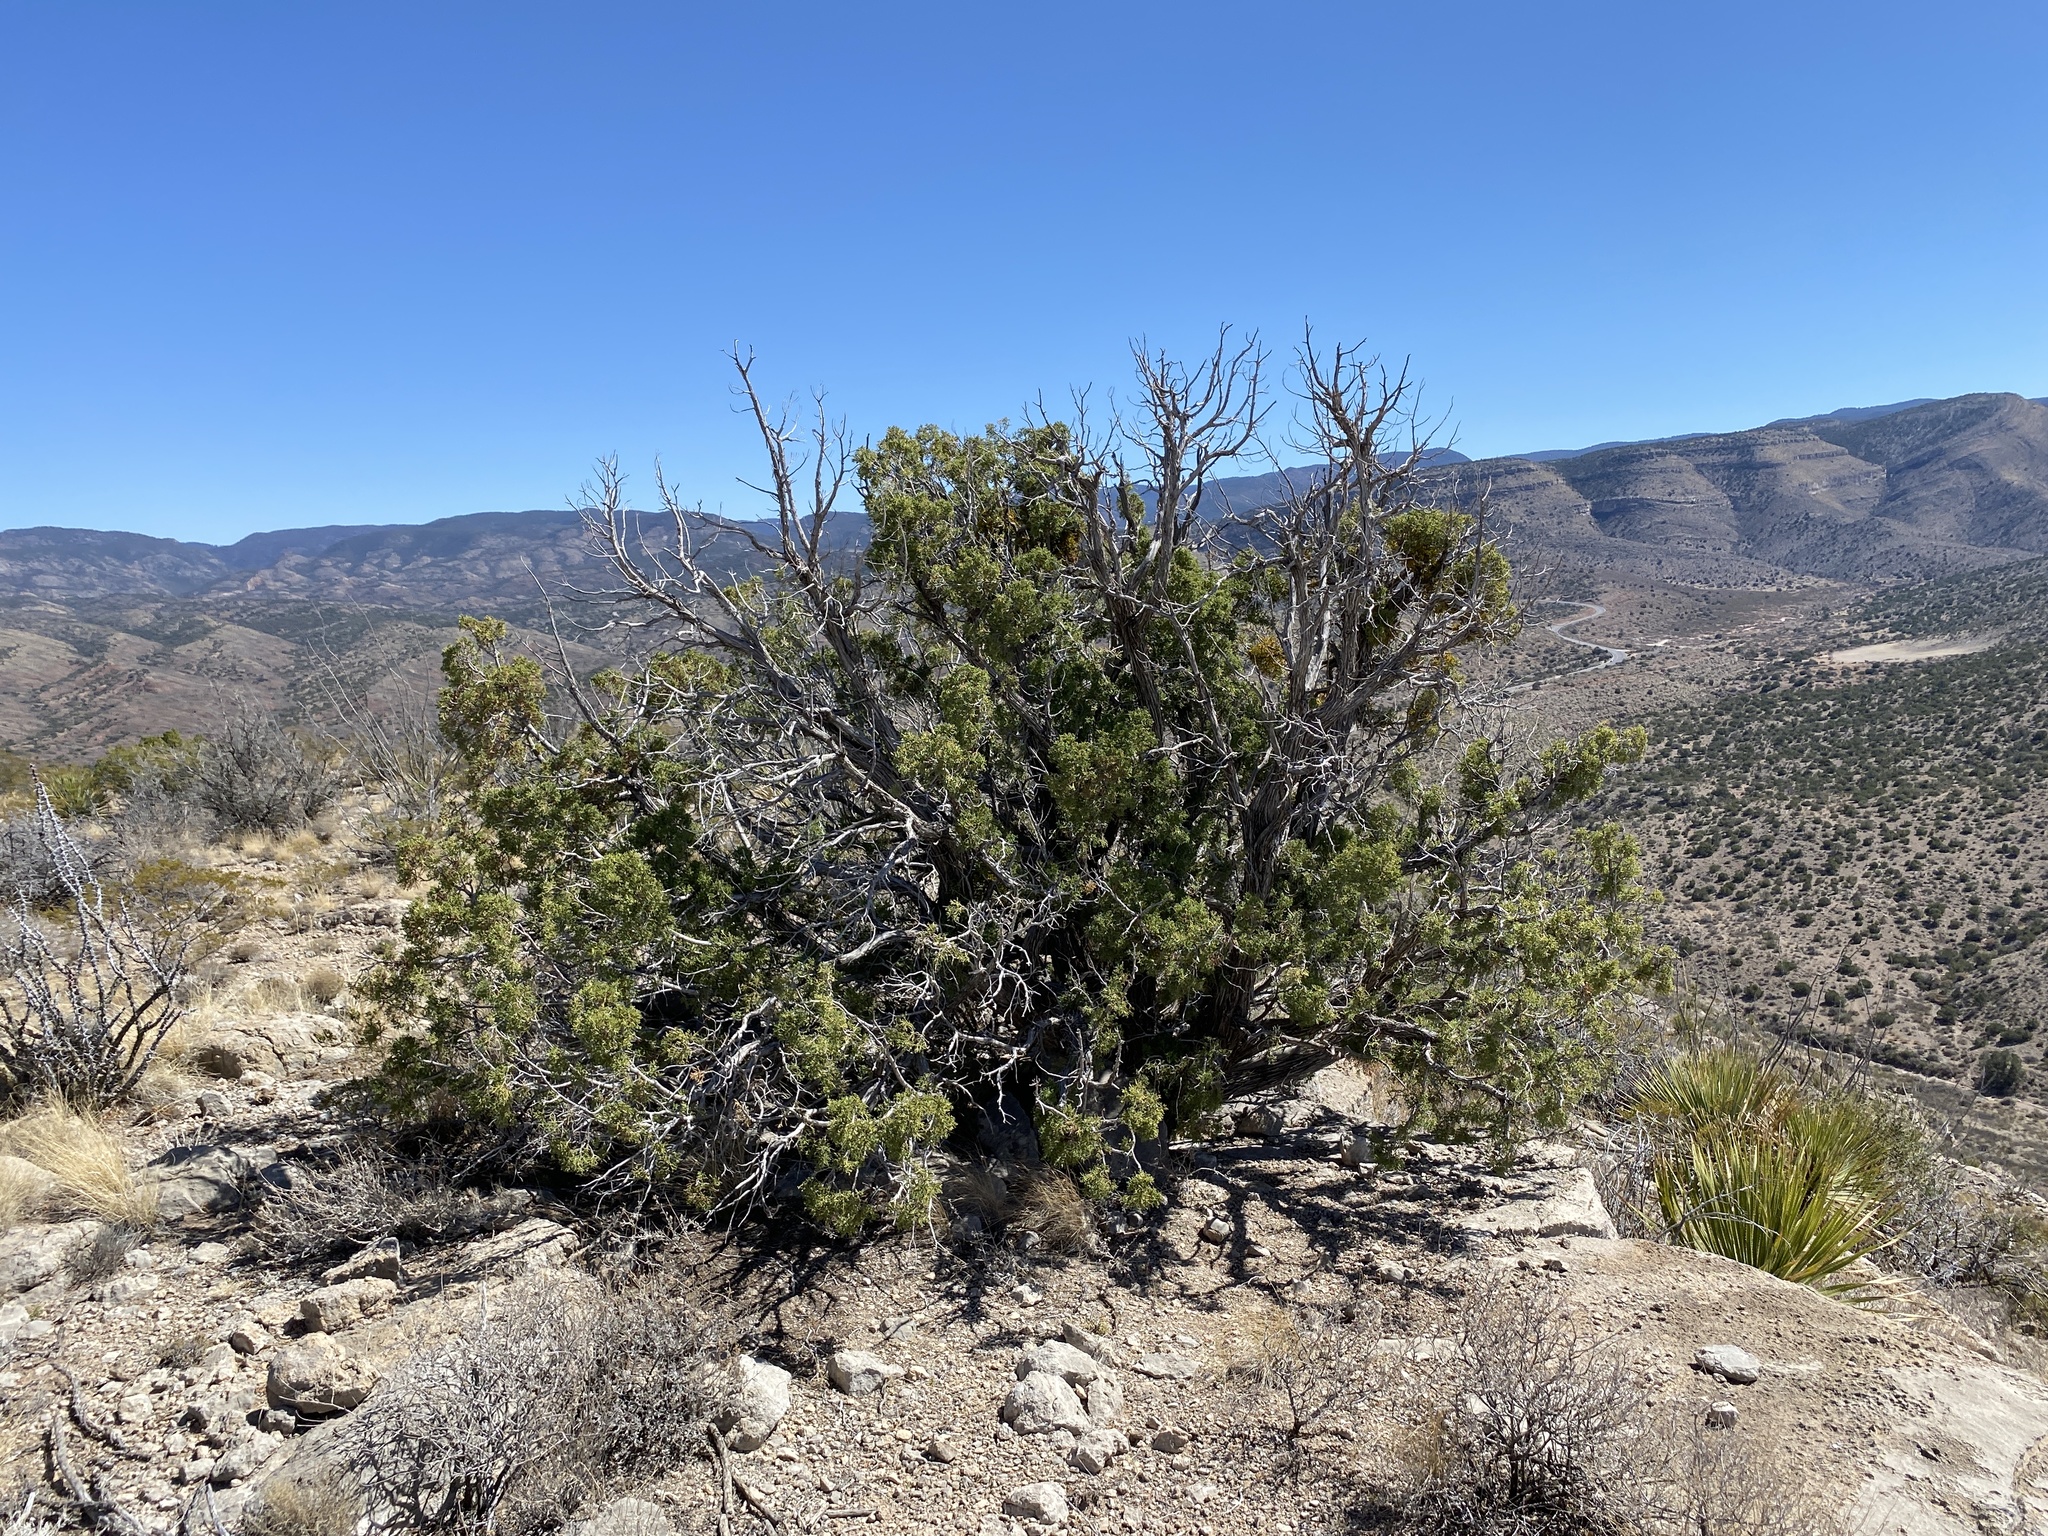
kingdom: Plantae
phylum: Tracheophyta
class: Pinopsida
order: Pinales
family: Cupressaceae
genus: Juniperus
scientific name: Juniperus monosperma
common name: One-seed juniper
